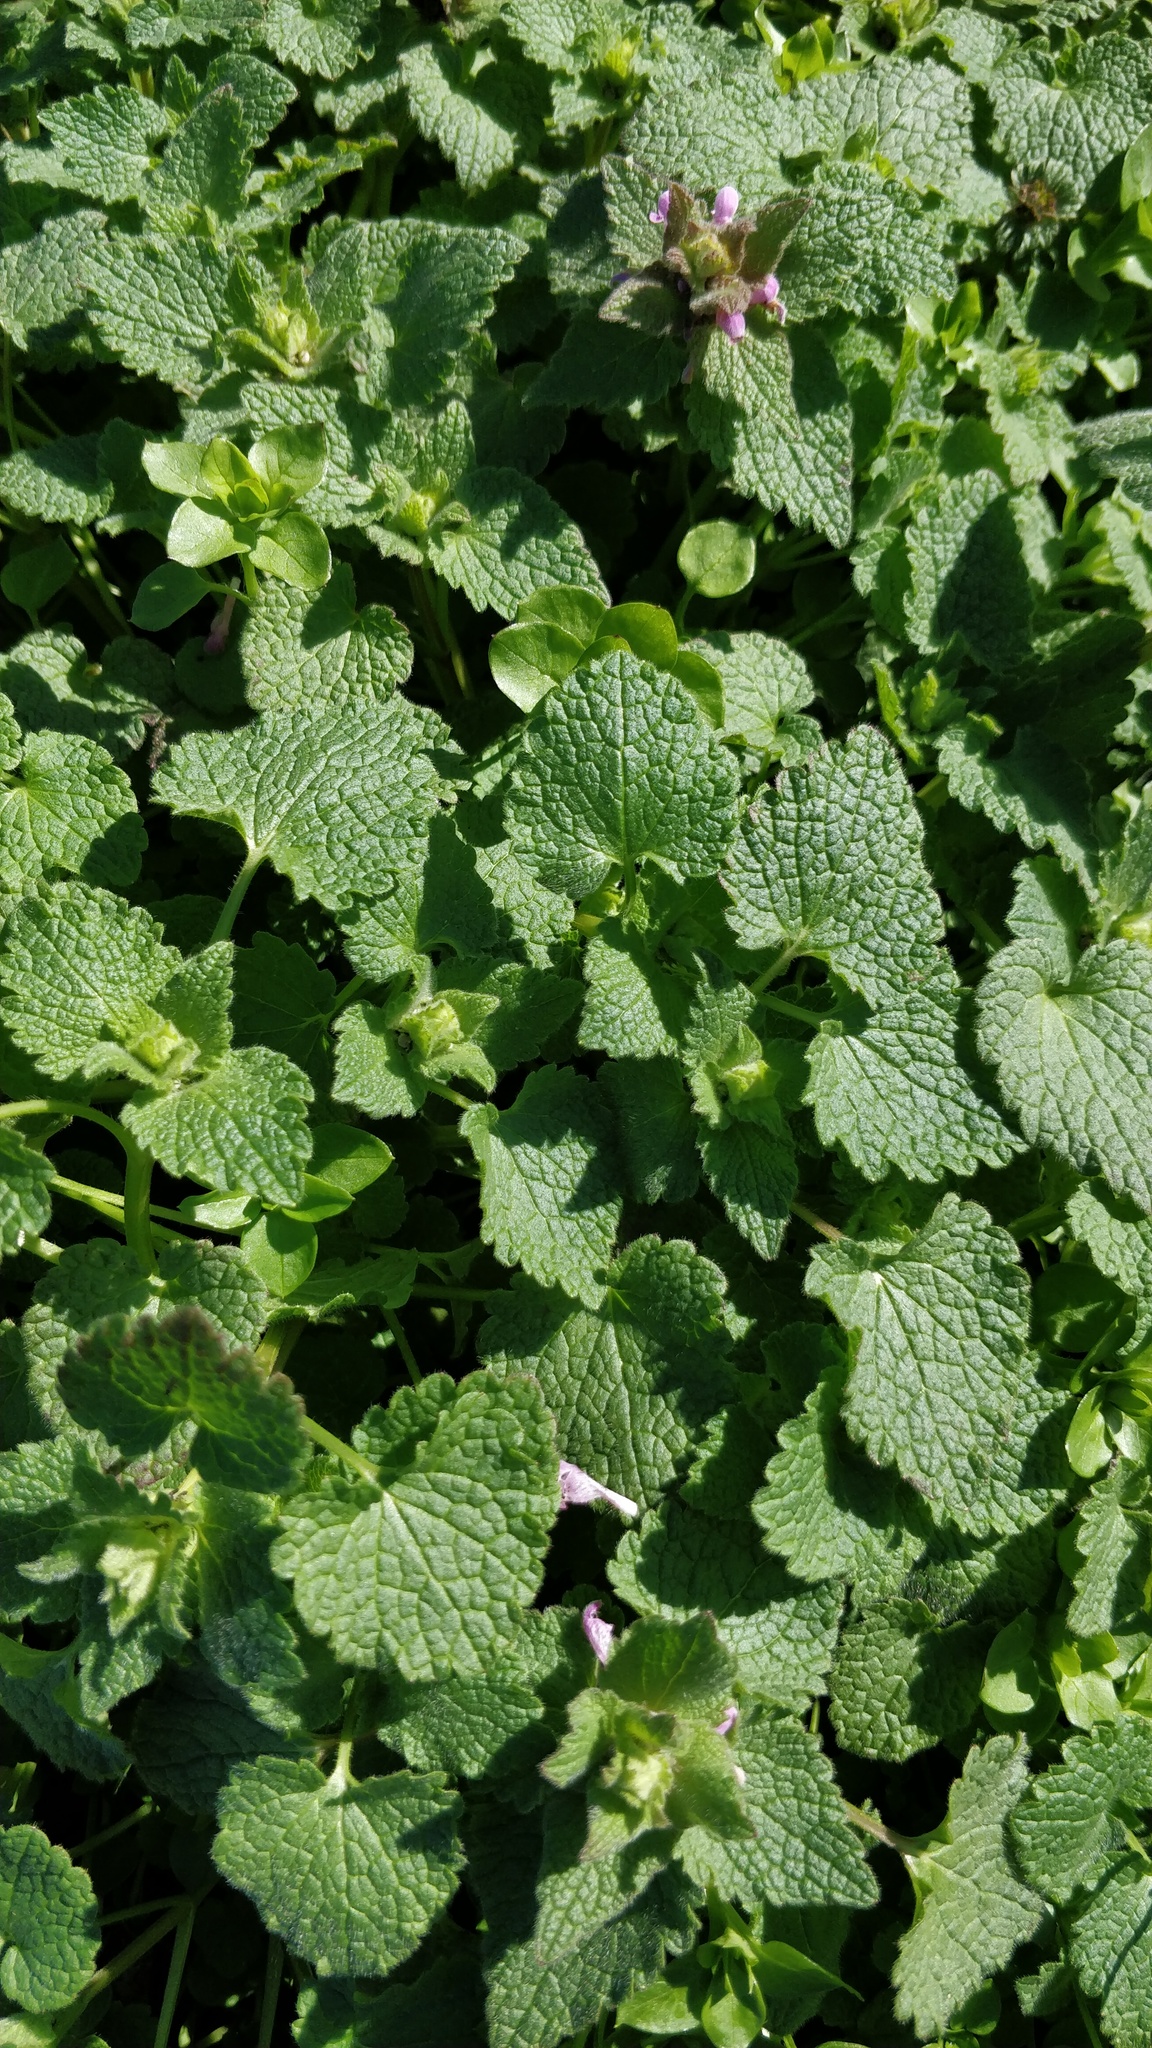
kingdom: Plantae
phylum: Tracheophyta
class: Magnoliopsida
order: Lamiales
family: Lamiaceae
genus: Lamium
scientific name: Lamium purpureum
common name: Red dead-nettle
